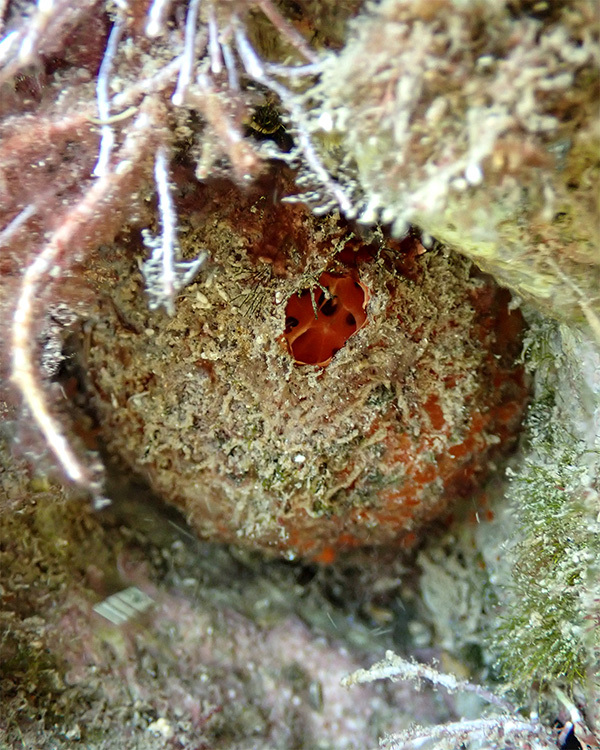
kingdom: Animalia
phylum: Porifera
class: Demospongiae
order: Tethyida
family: Tethyidae
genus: Tethya
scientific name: Tethya aurantium
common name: Golf ball sponge
